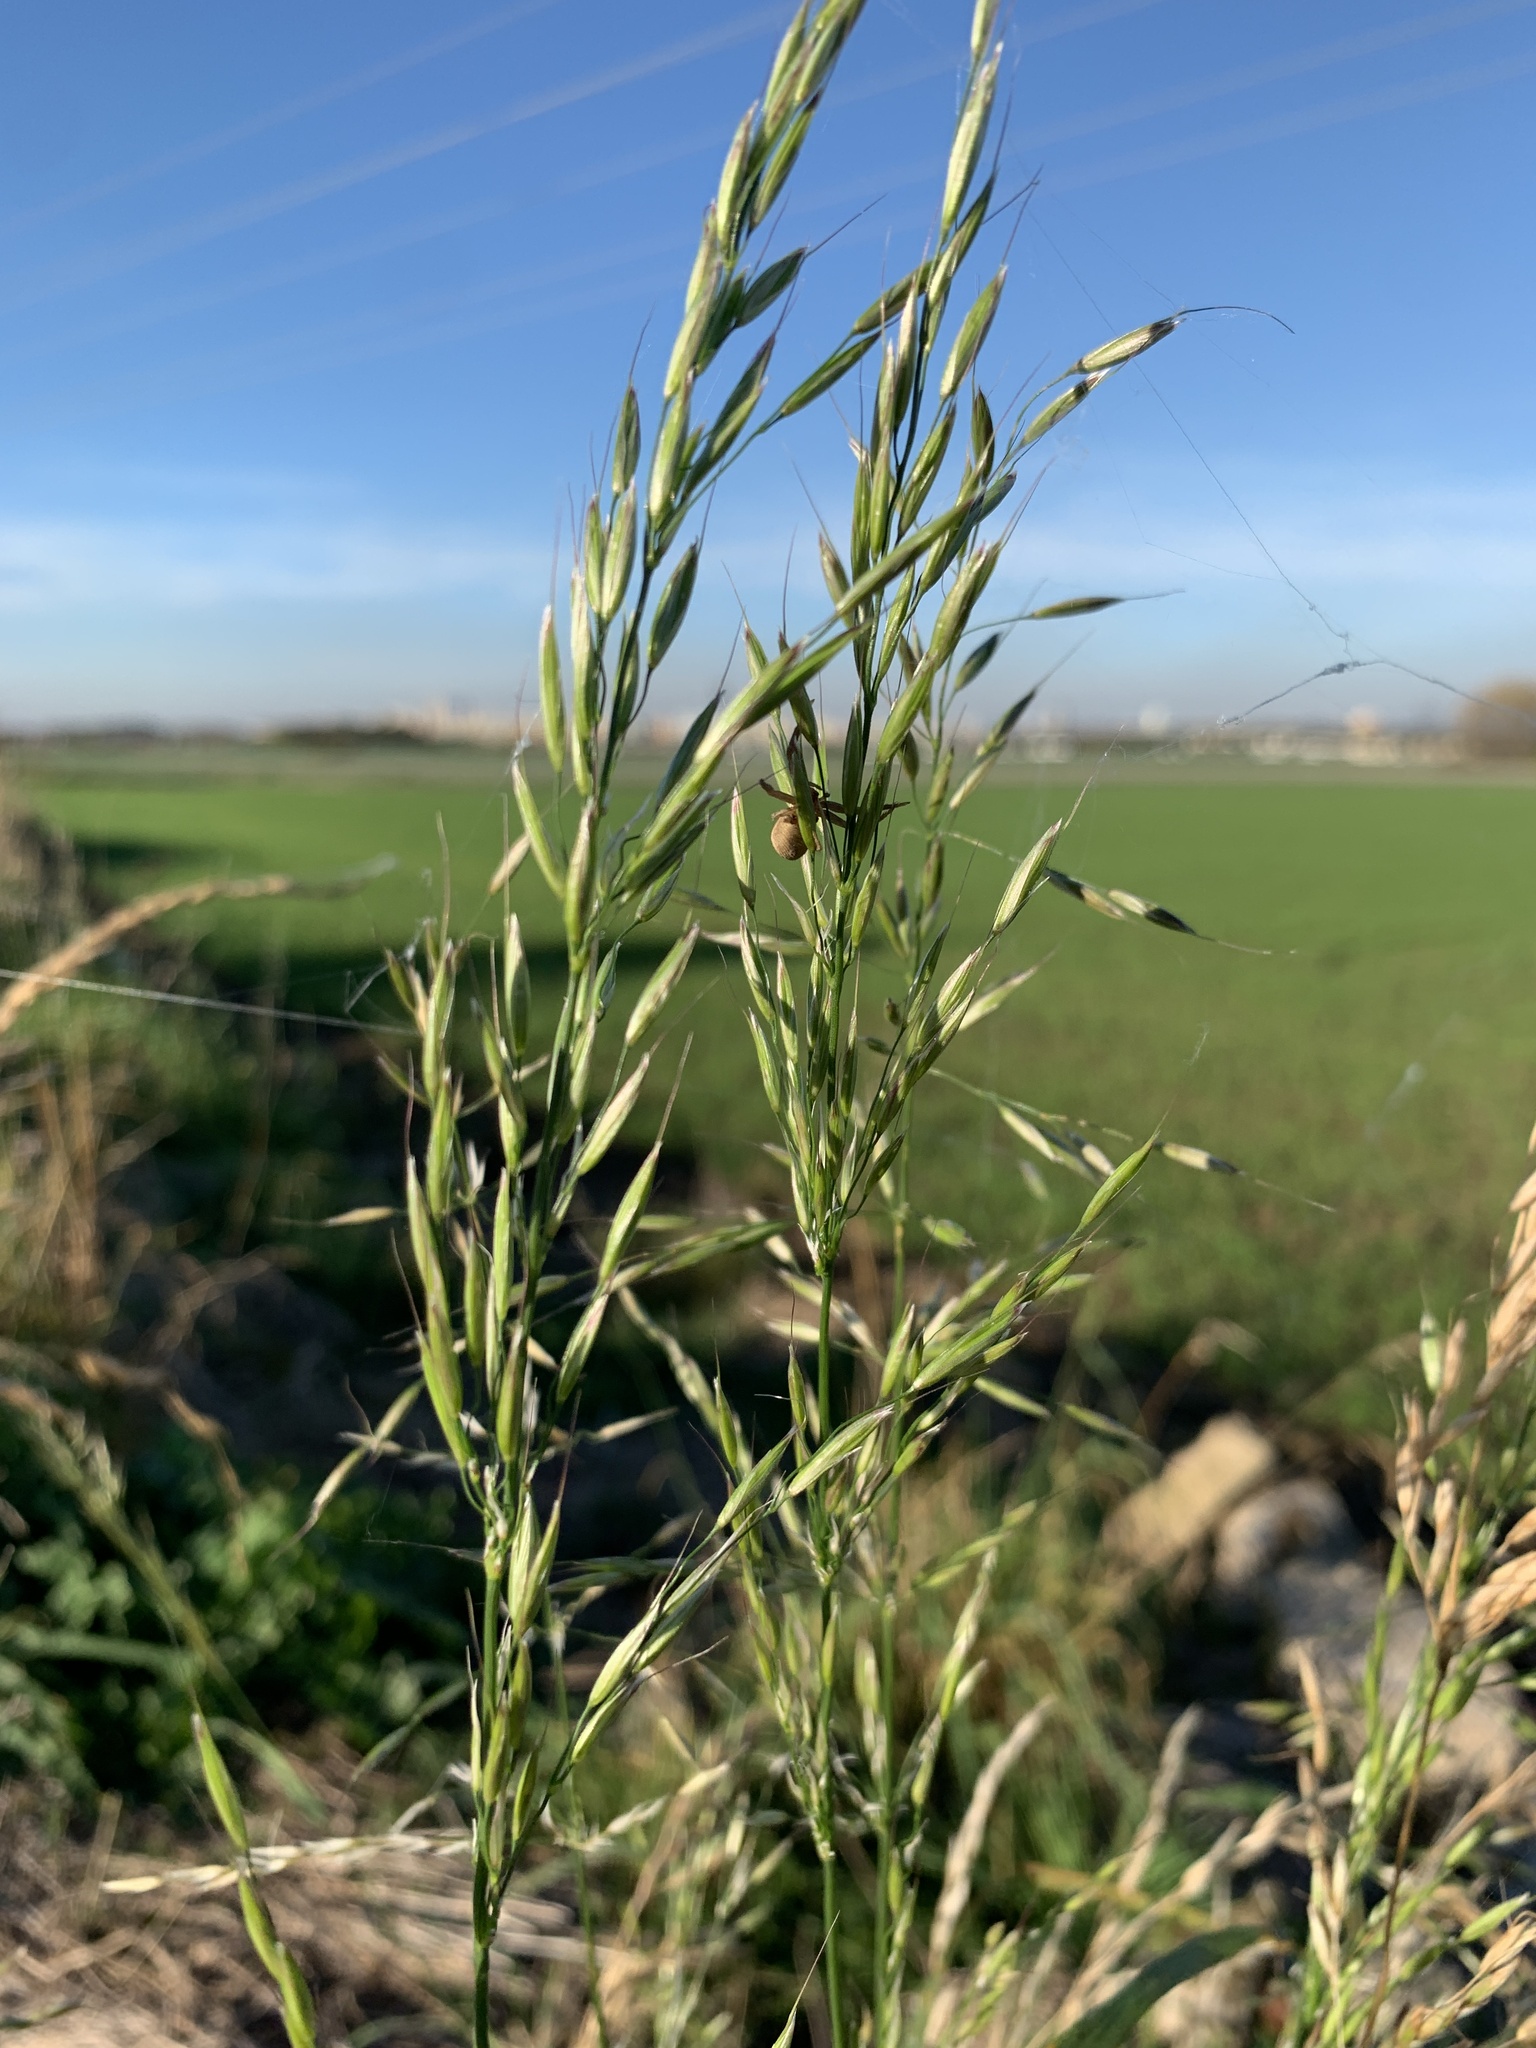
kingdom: Plantae
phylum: Tracheophyta
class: Liliopsida
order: Poales
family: Poaceae
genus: Arrhenatherum
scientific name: Arrhenatherum elatius
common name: Tall oatgrass
